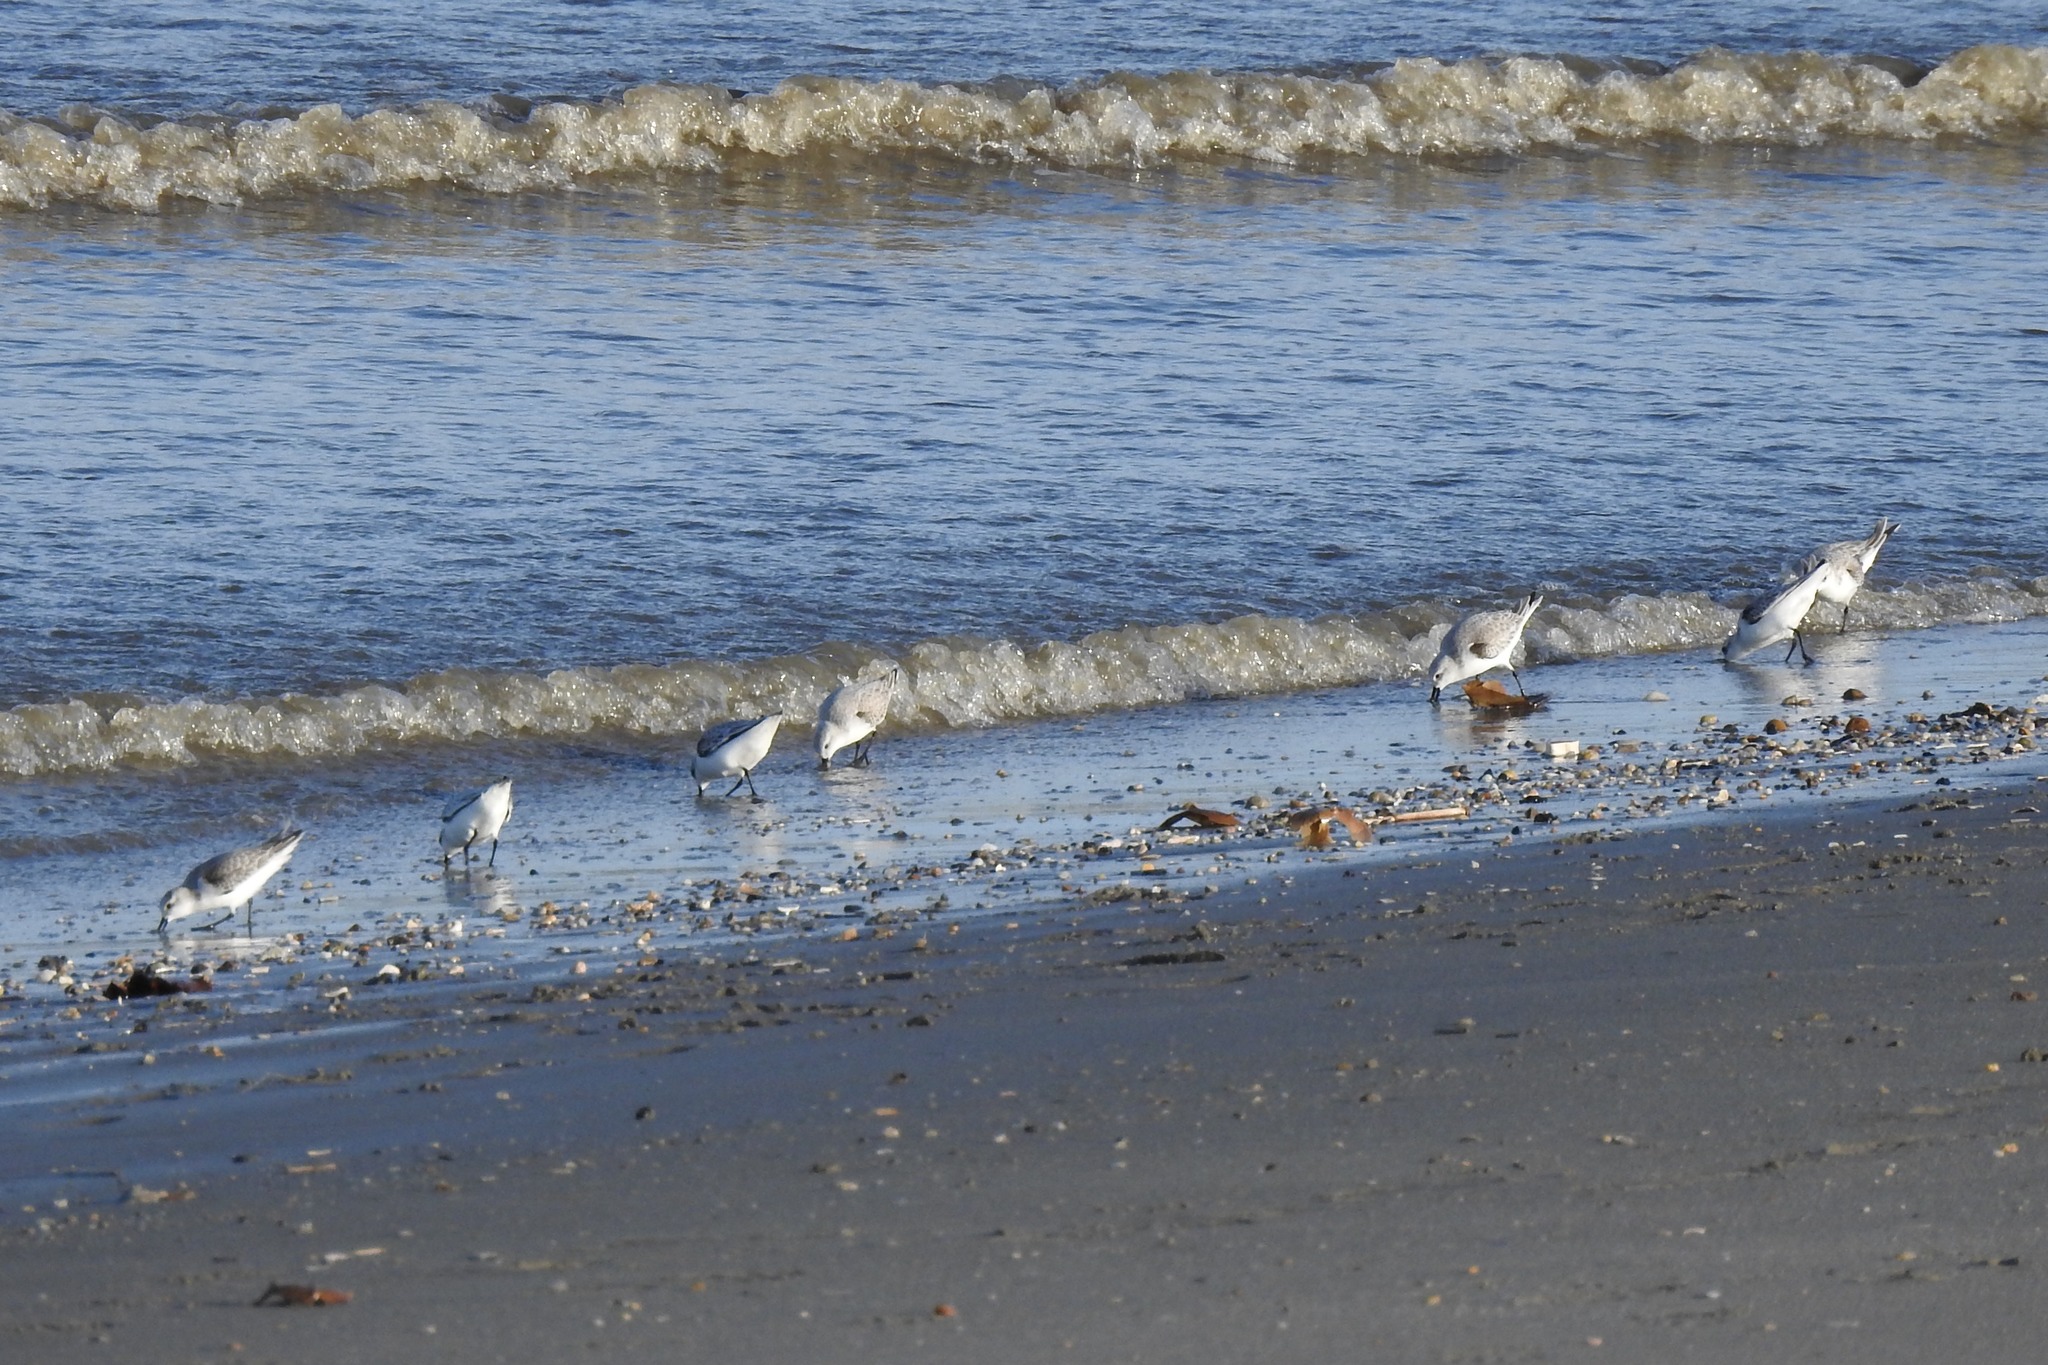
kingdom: Animalia
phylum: Chordata
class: Aves
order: Charadriiformes
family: Scolopacidae
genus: Calidris
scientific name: Calidris alba
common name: Sanderling
